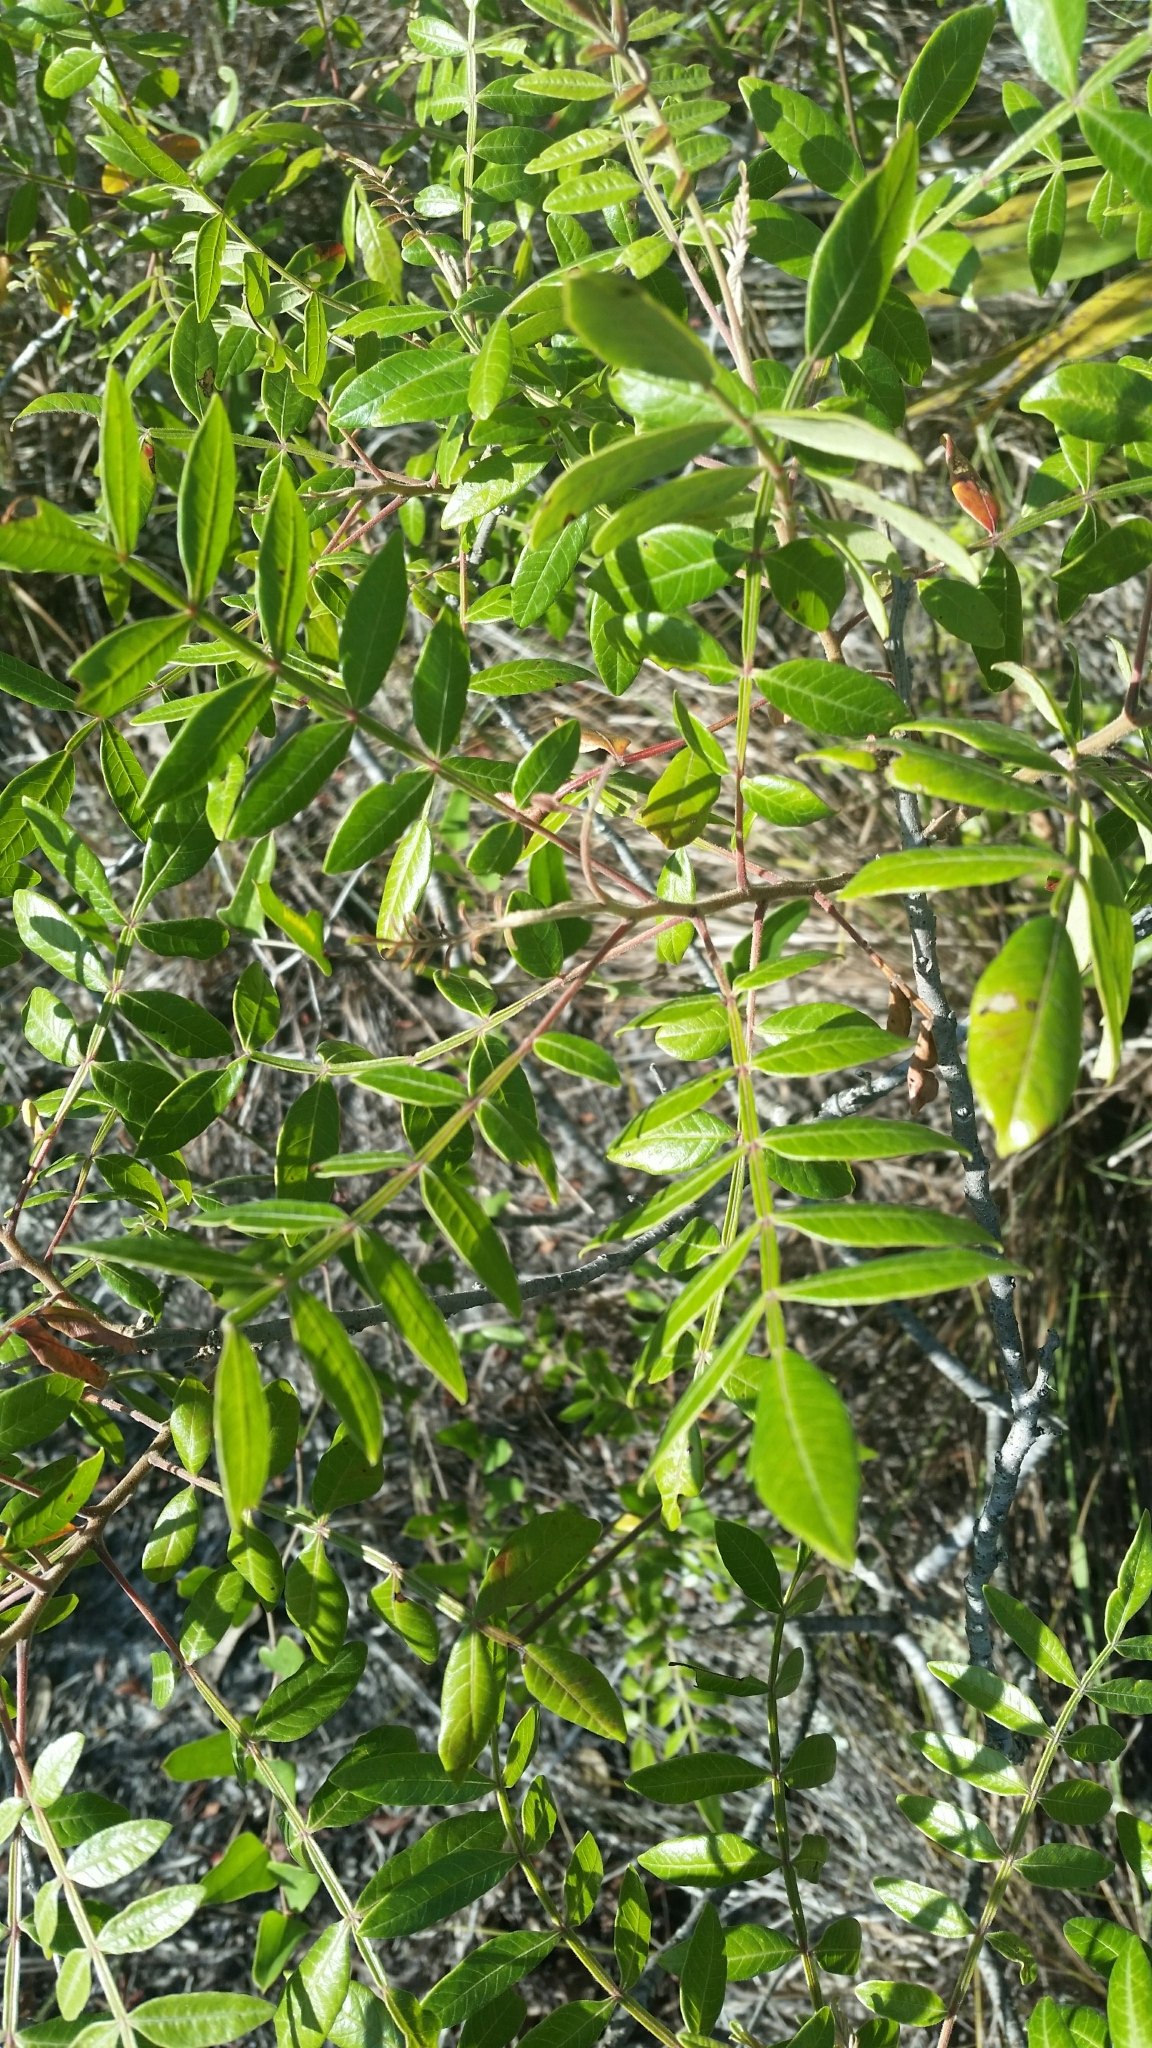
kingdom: Plantae
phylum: Tracheophyta
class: Magnoliopsida
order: Sapindales
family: Anacardiaceae
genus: Rhus
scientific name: Rhus copallina
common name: Shining sumac
